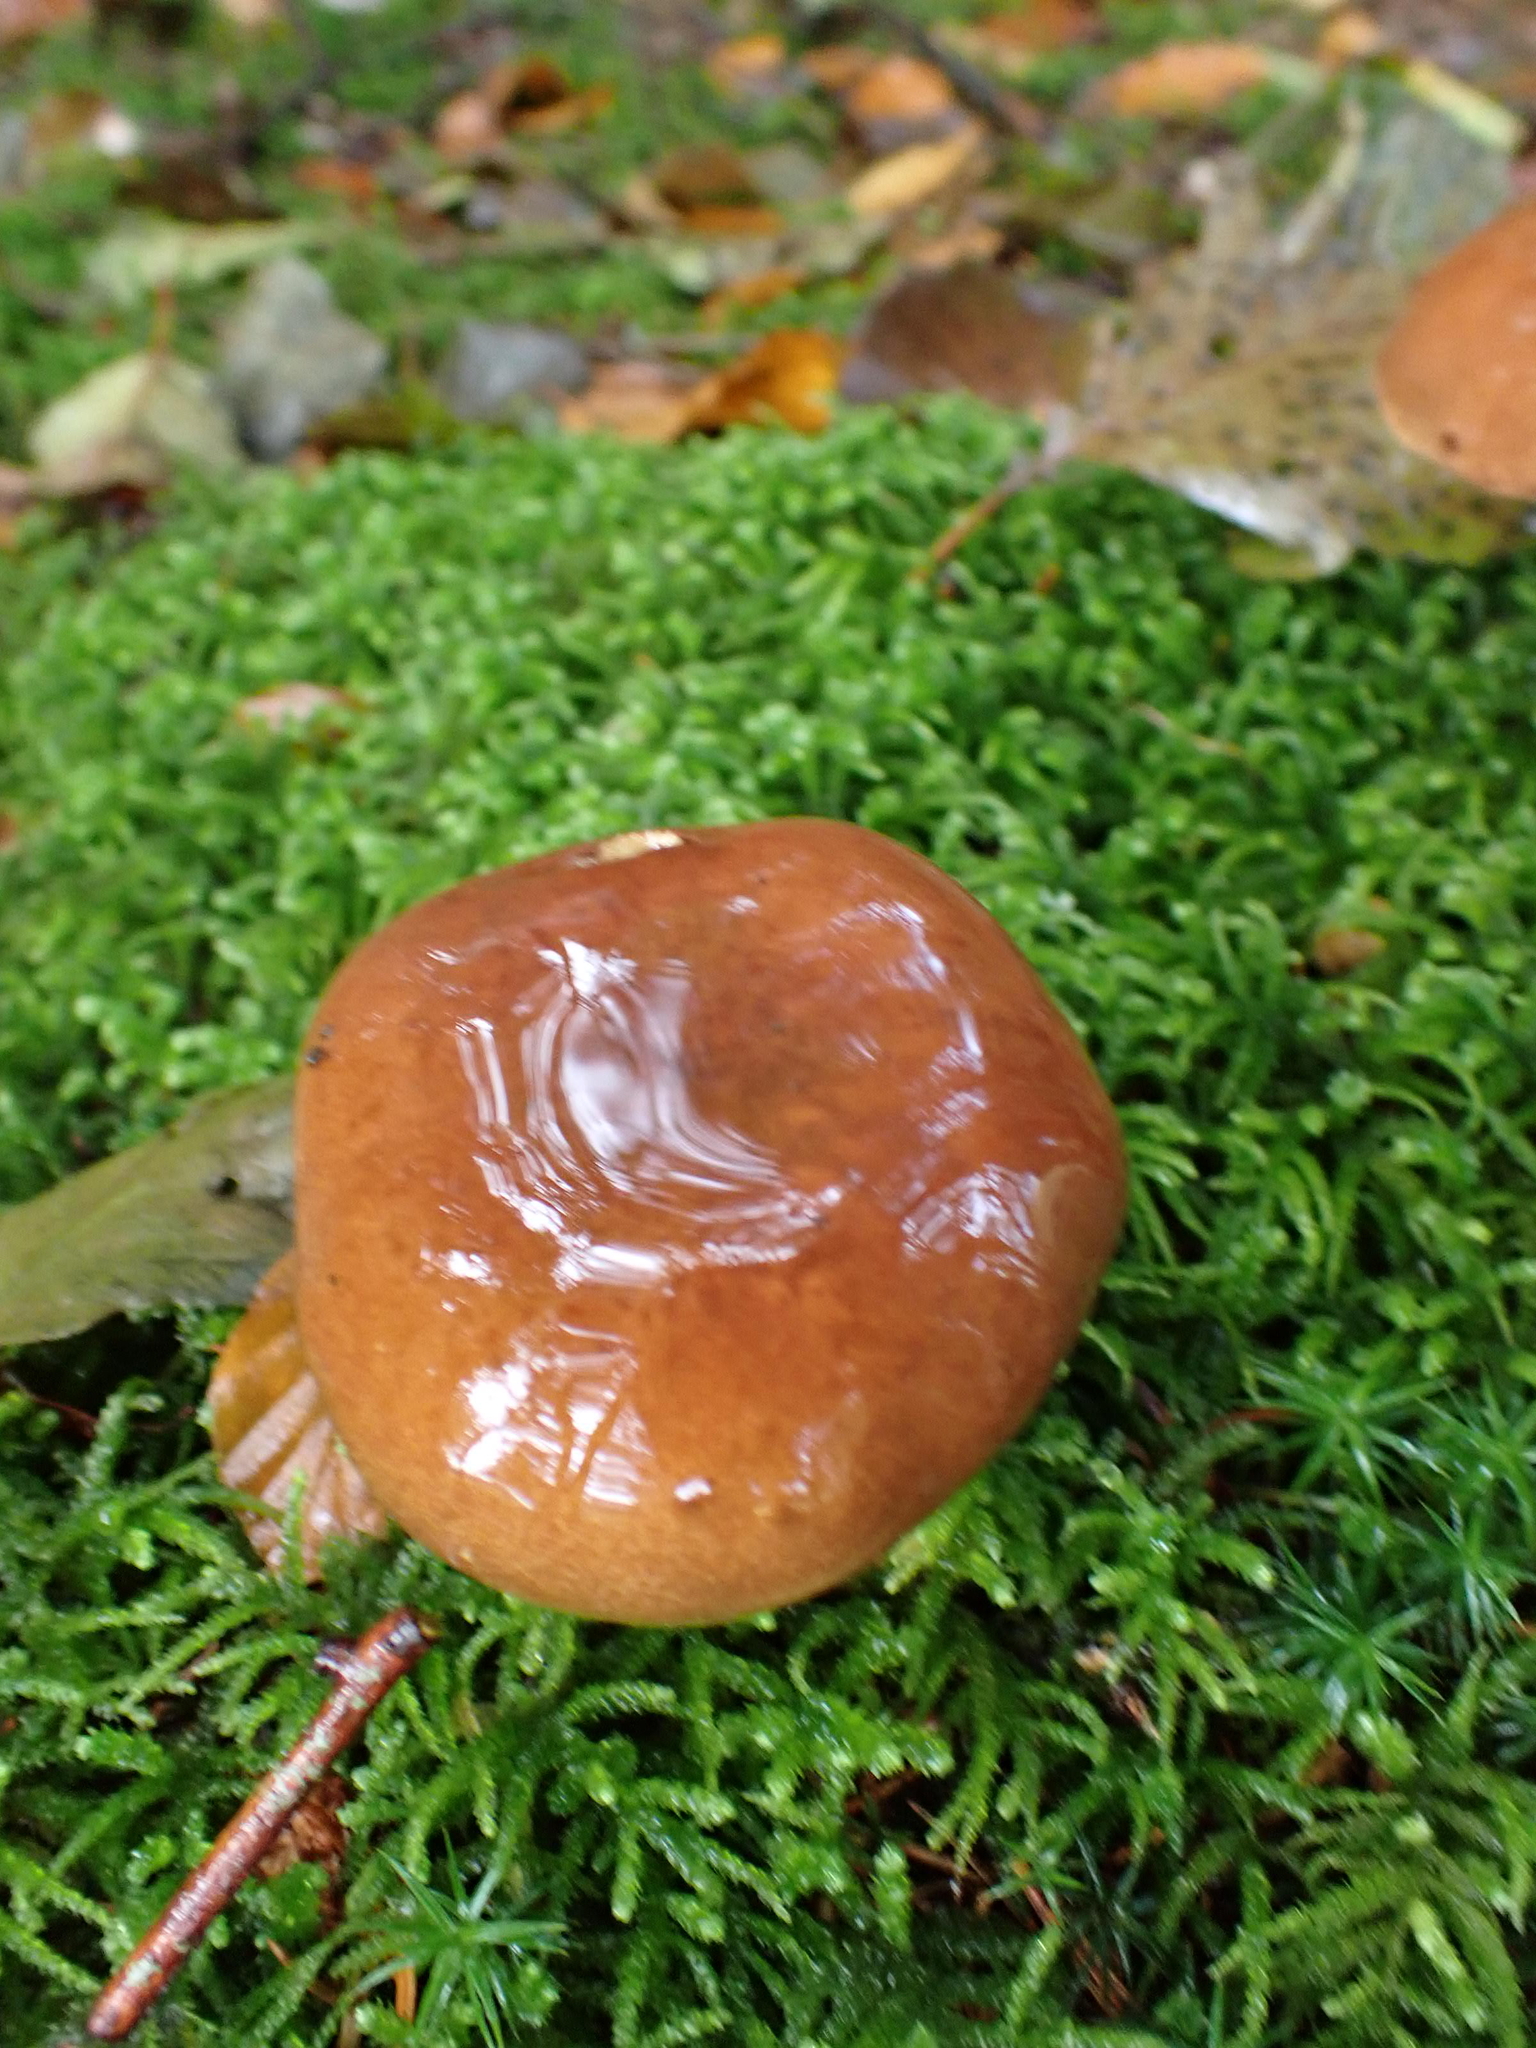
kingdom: Fungi
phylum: Basidiomycota
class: Agaricomycetes
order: Boletales
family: Boletaceae
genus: Imleria
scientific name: Imleria badia
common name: Bay bolete
